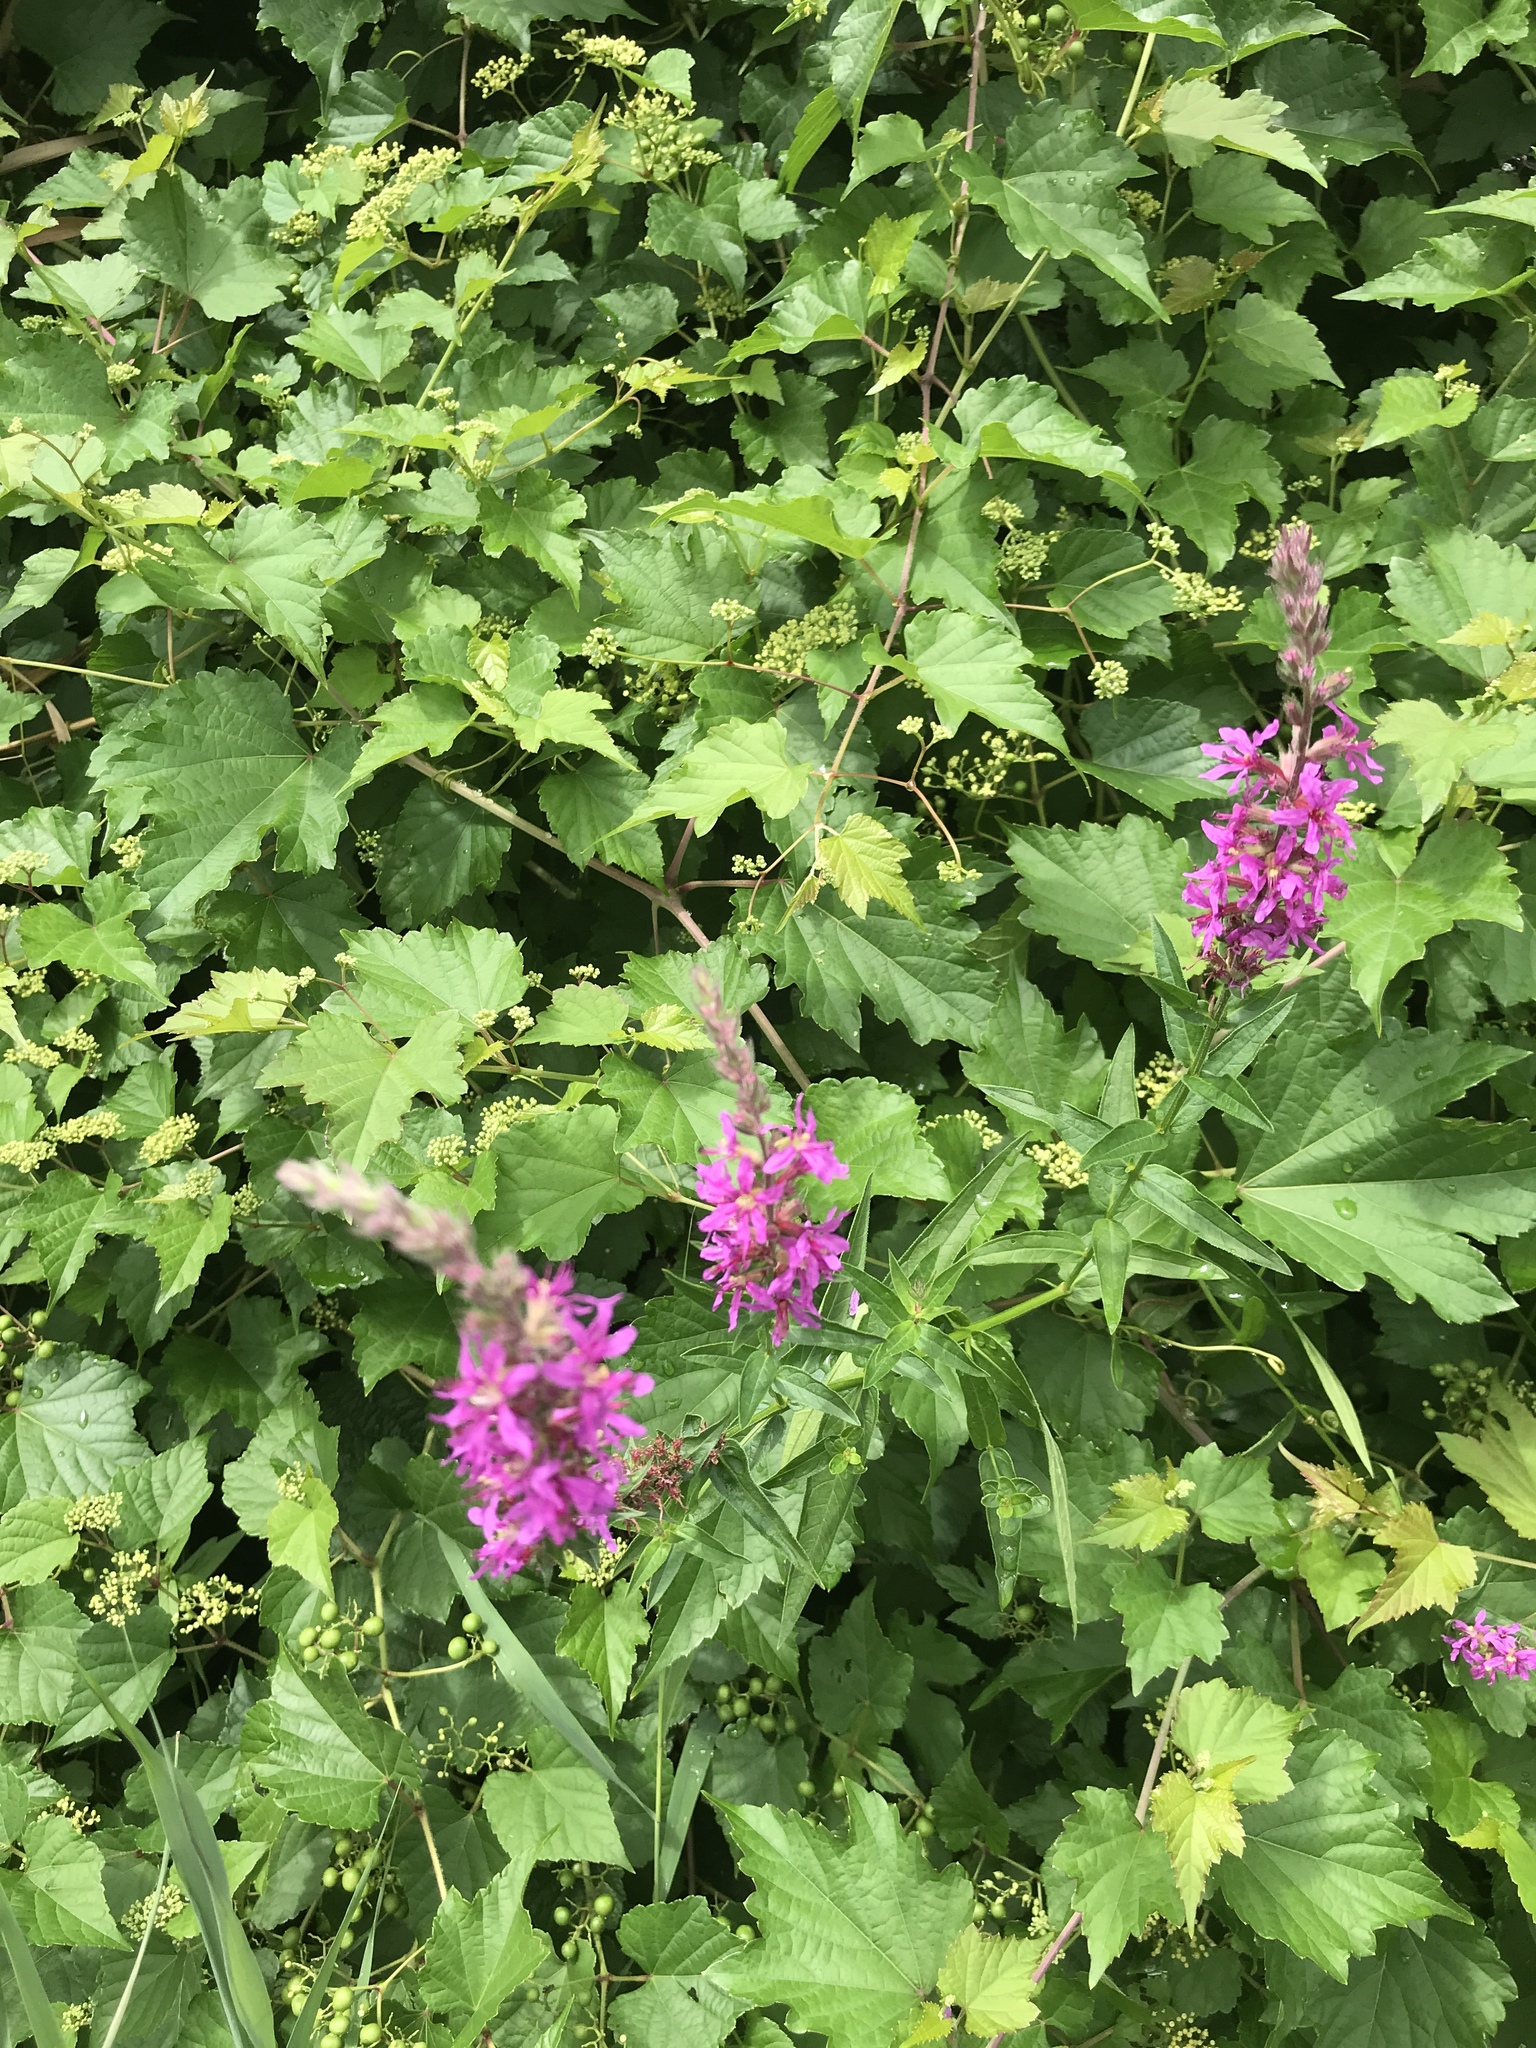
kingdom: Plantae
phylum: Tracheophyta
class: Magnoliopsida
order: Myrtales
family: Lythraceae
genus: Lythrum
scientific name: Lythrum salicaria
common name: Purple loosestrife
